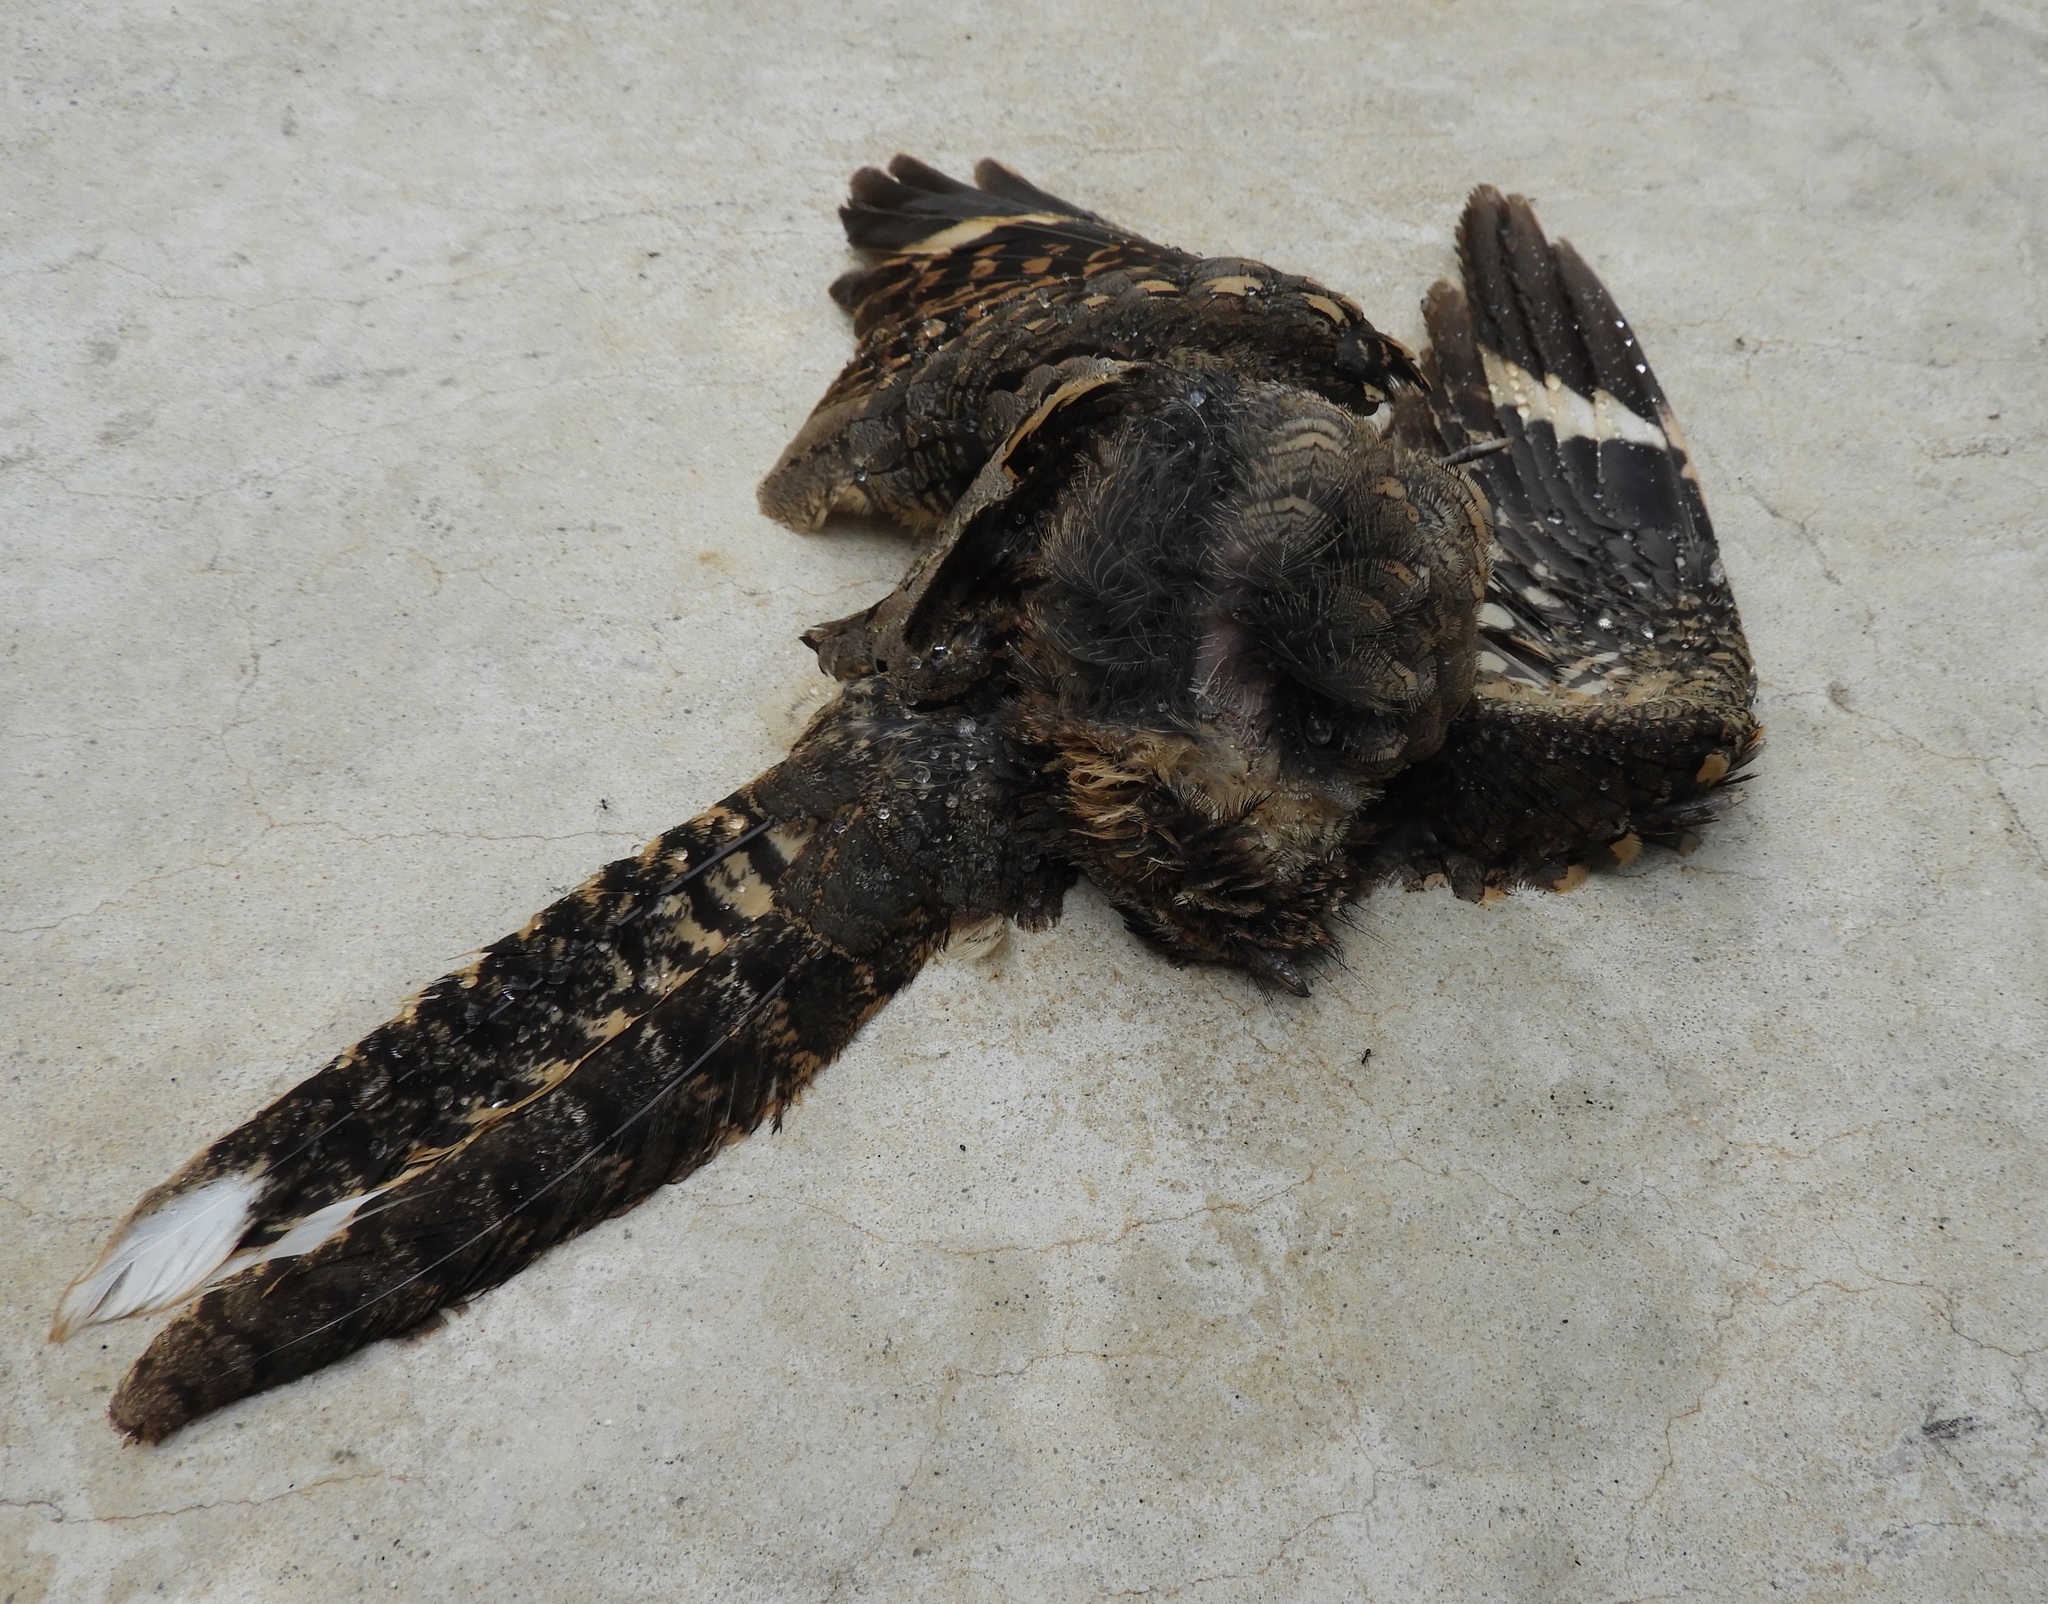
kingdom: Animalia
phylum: Chordata
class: Aves
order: Caprimulgiformes
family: Caprimulgidae
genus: Nyctidromus
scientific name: Nyctidromus albicollis
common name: Pauraque
